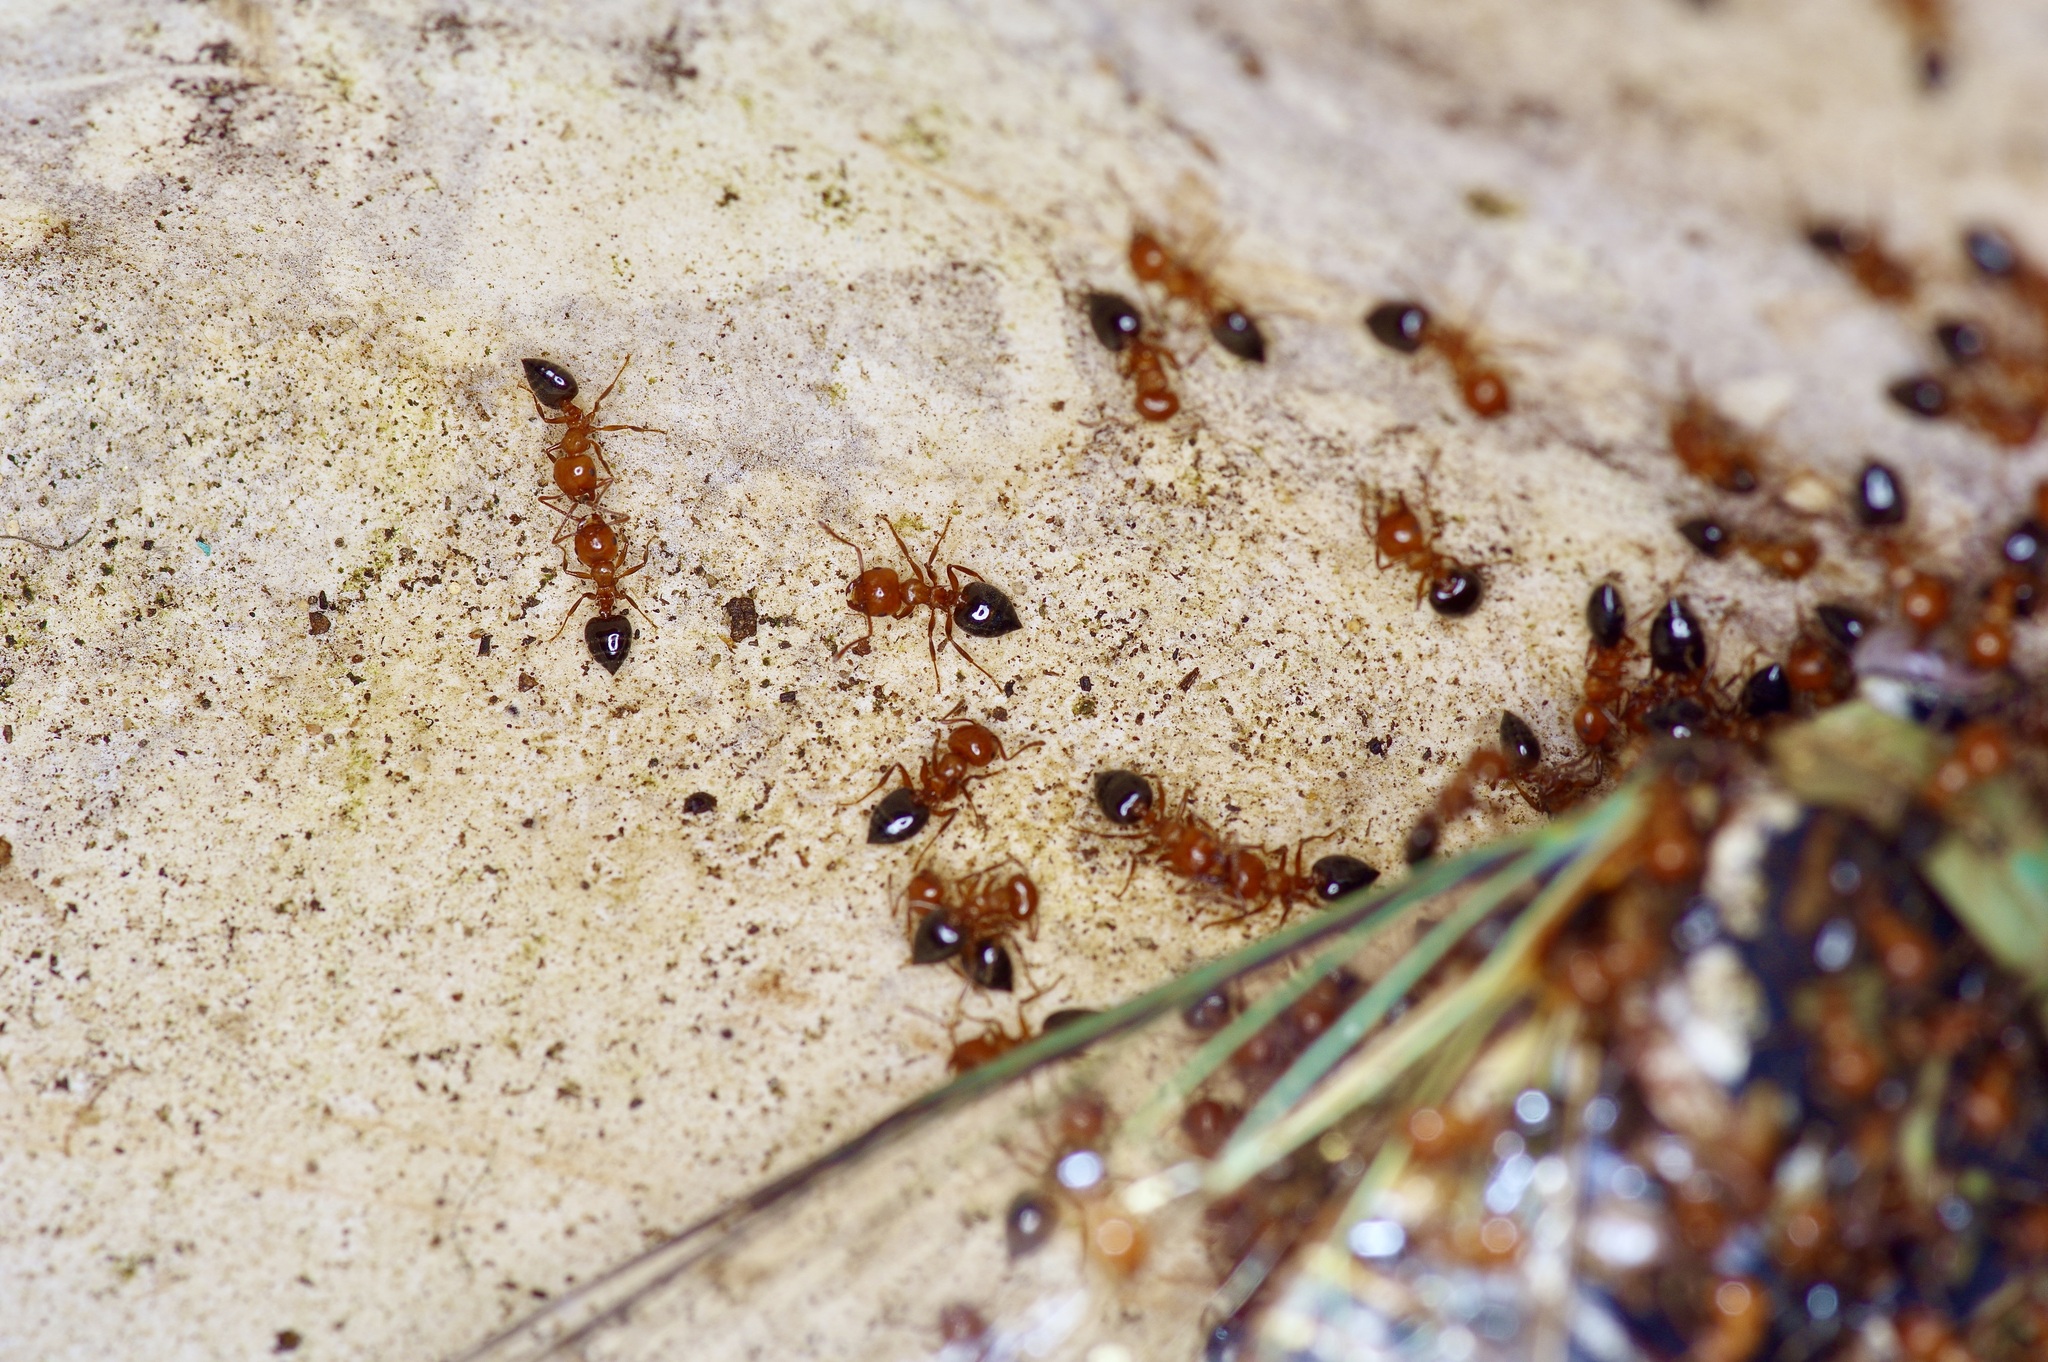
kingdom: Animalia
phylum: Arthropoda
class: Insecta
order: Hymenoptera
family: Formicidae
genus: Crematogaster
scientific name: Crematogaster laeviuscula
